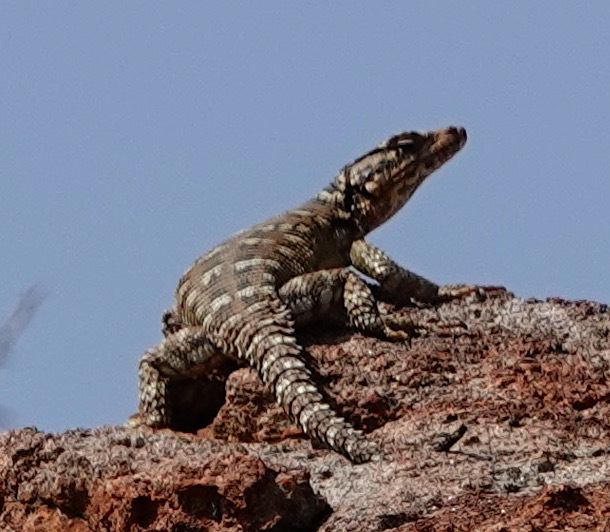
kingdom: Animalia
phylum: Chordata
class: Squamata
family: Cordylidae
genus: Karusasaurus
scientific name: Karusasaurus polyzonus
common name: Karoo girdled lizard
